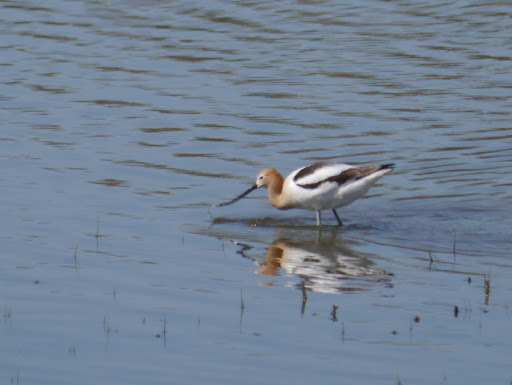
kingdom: Animalia
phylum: Chordata
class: Aves
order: Charadriiformes
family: Recurvirostridae
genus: Recurvirostra
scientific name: Recurvirostra americana
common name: American avocet
